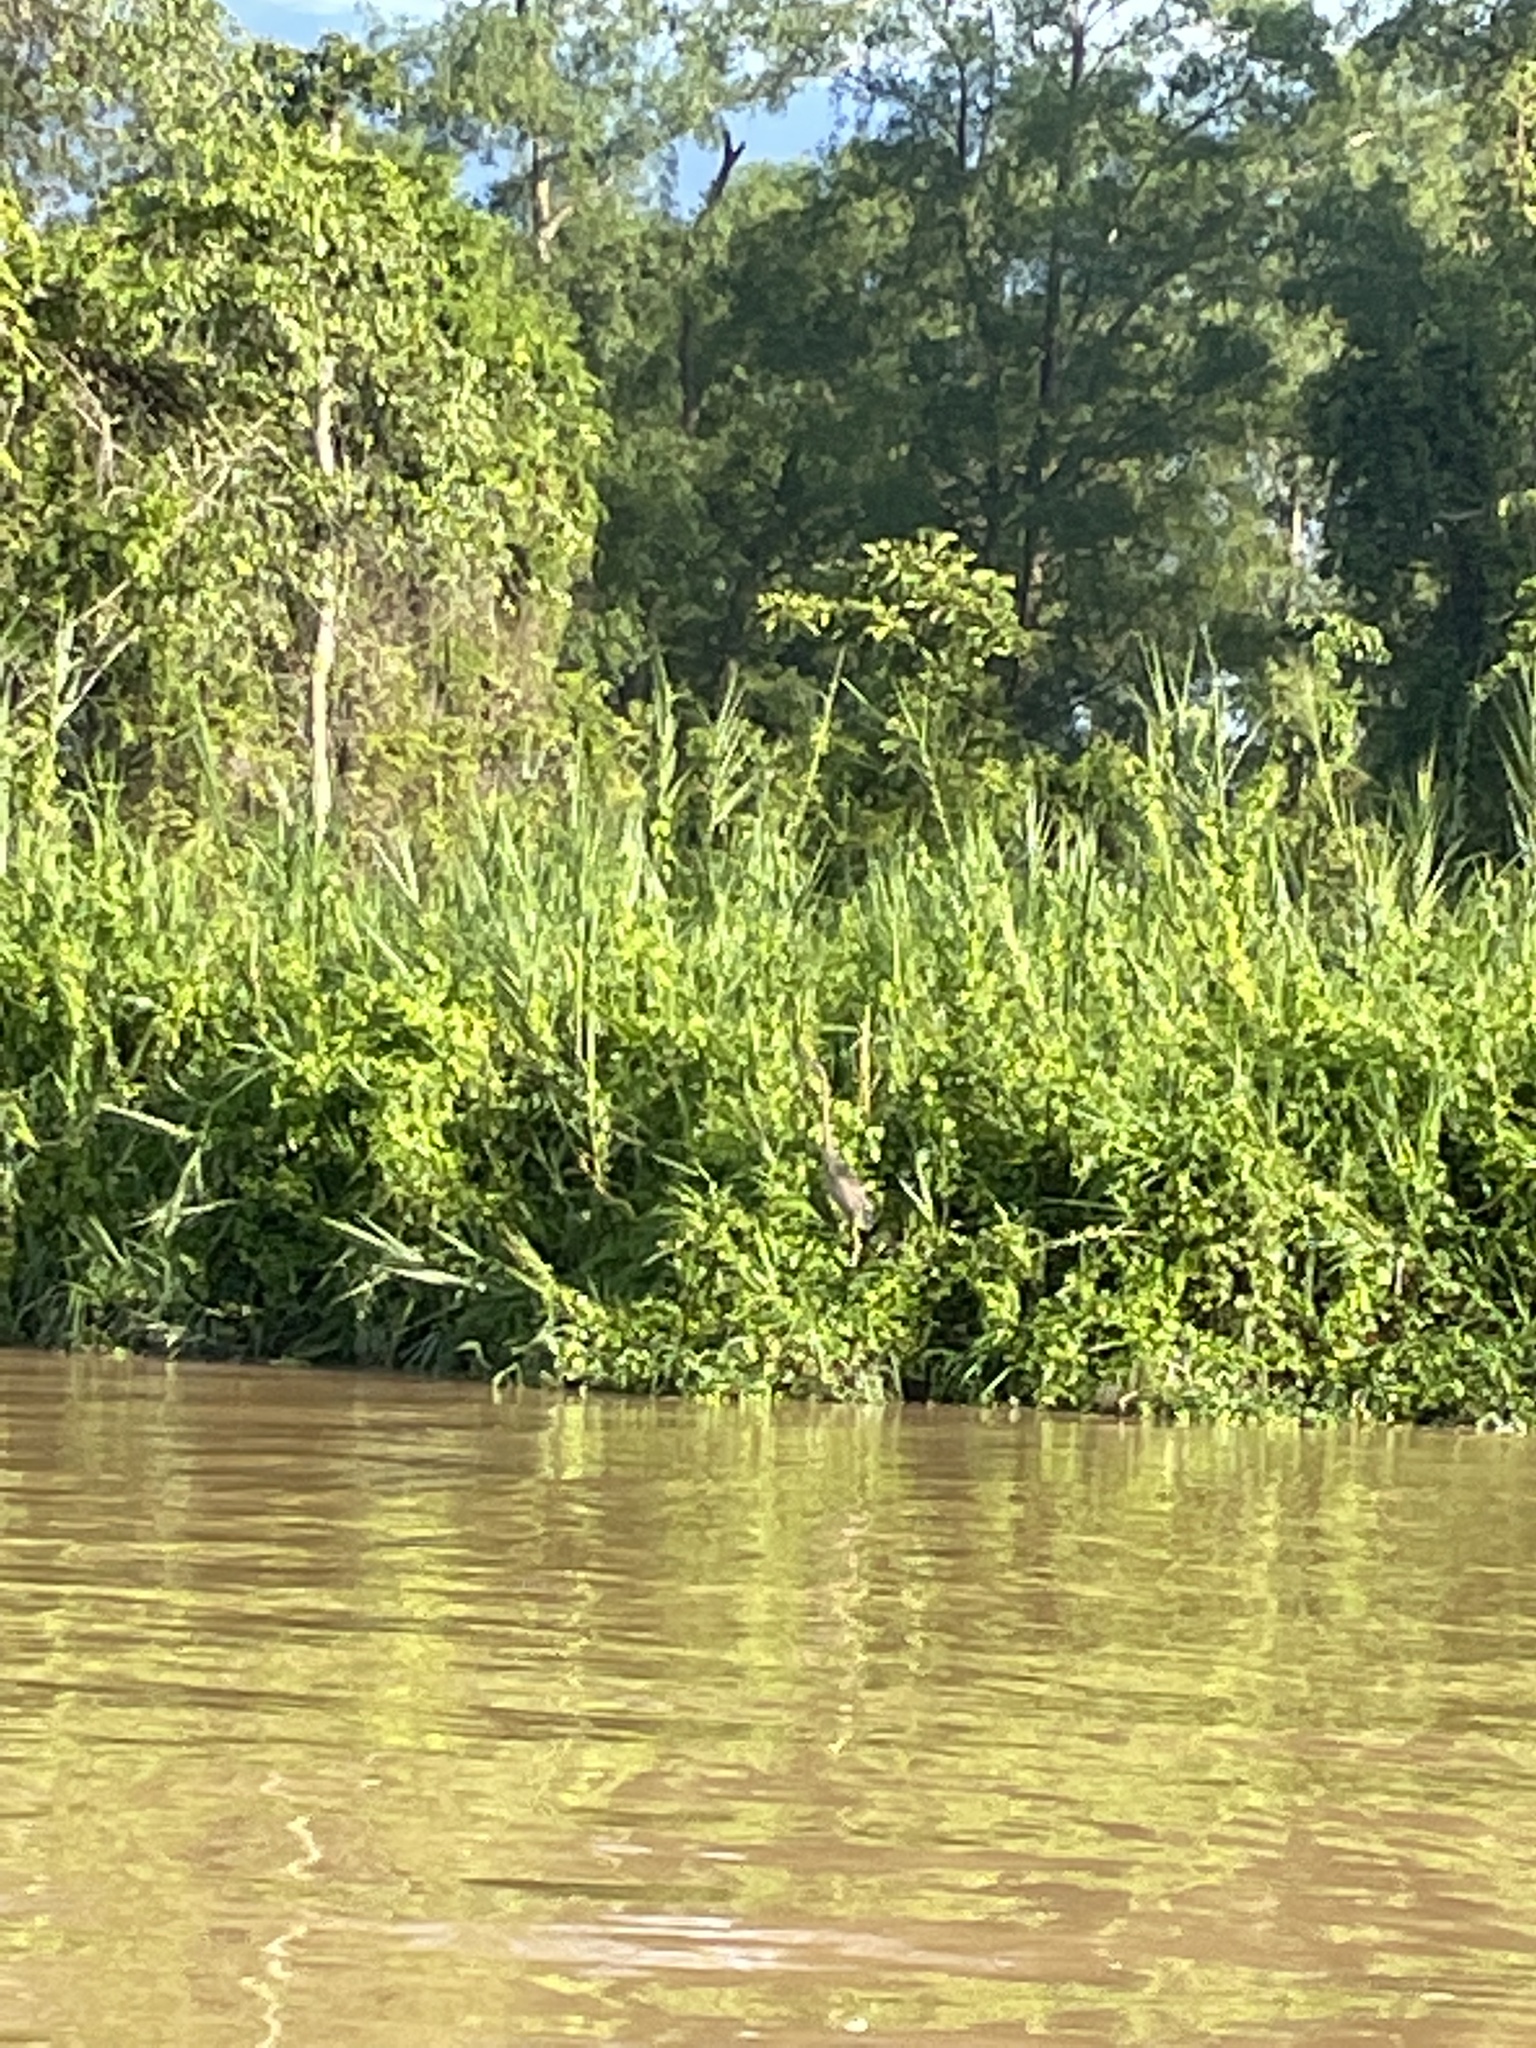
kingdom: Animalia
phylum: Chordata
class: Aves
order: Pelecaniformes
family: Ardeidae
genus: Ardea
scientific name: Ardea purpurea
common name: Purple heron
